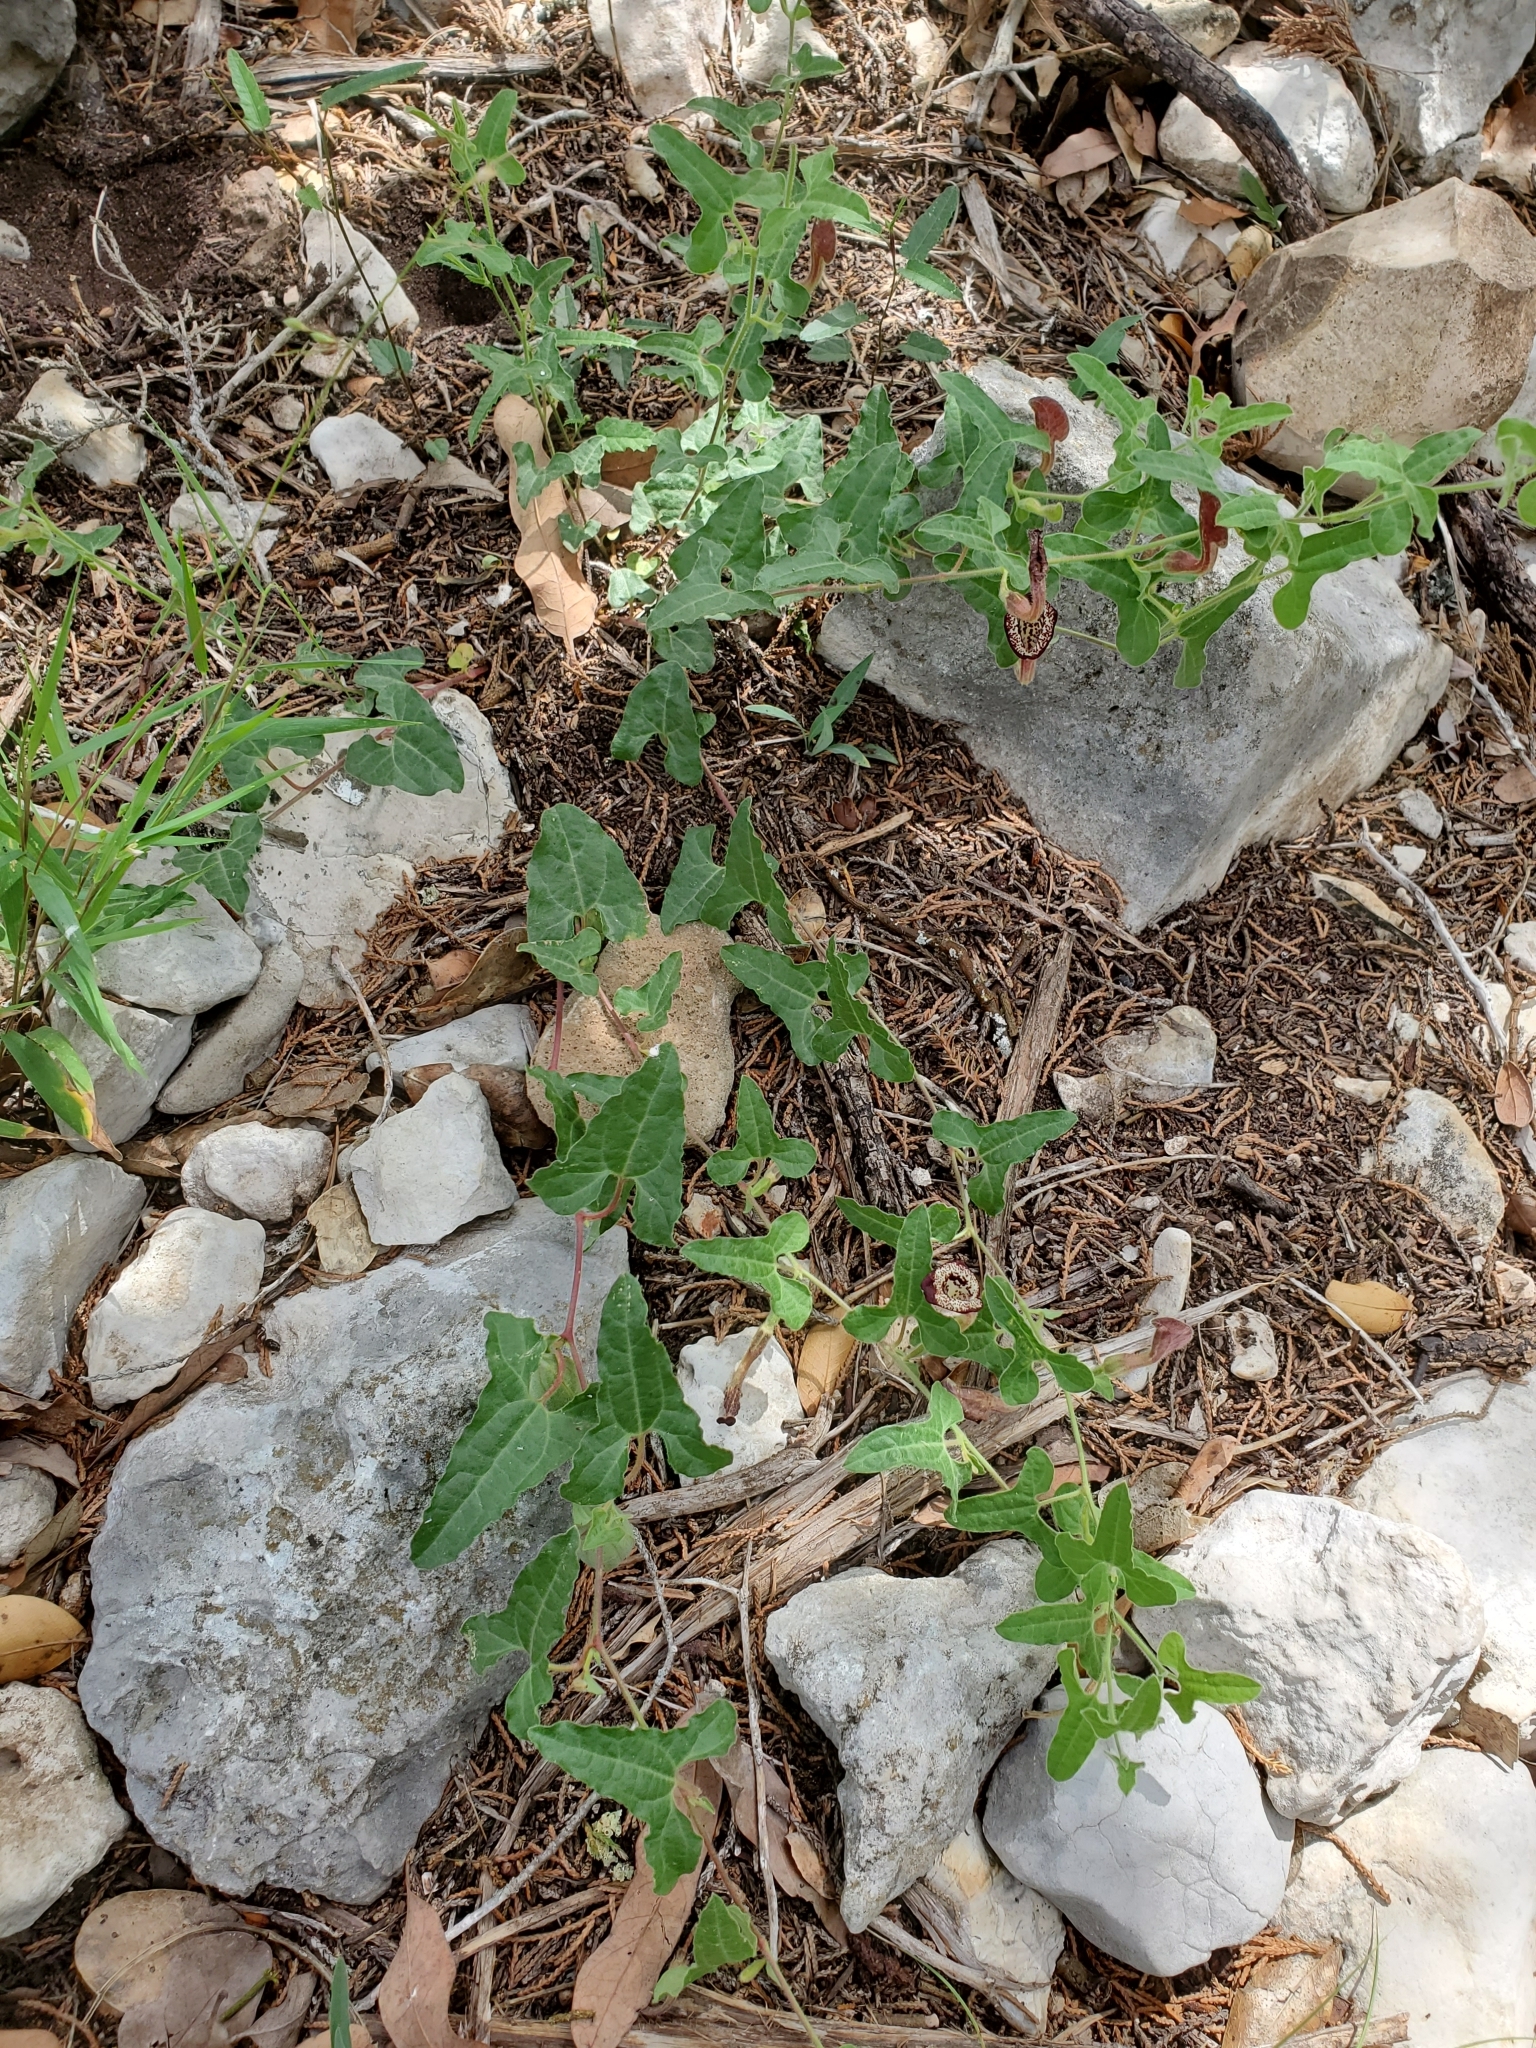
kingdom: Plantae
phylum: Tracheophyta
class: Magnoliopsida
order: Piperales
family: Aristolochiaceae
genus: Aristolochia
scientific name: Aristolochia coryi
